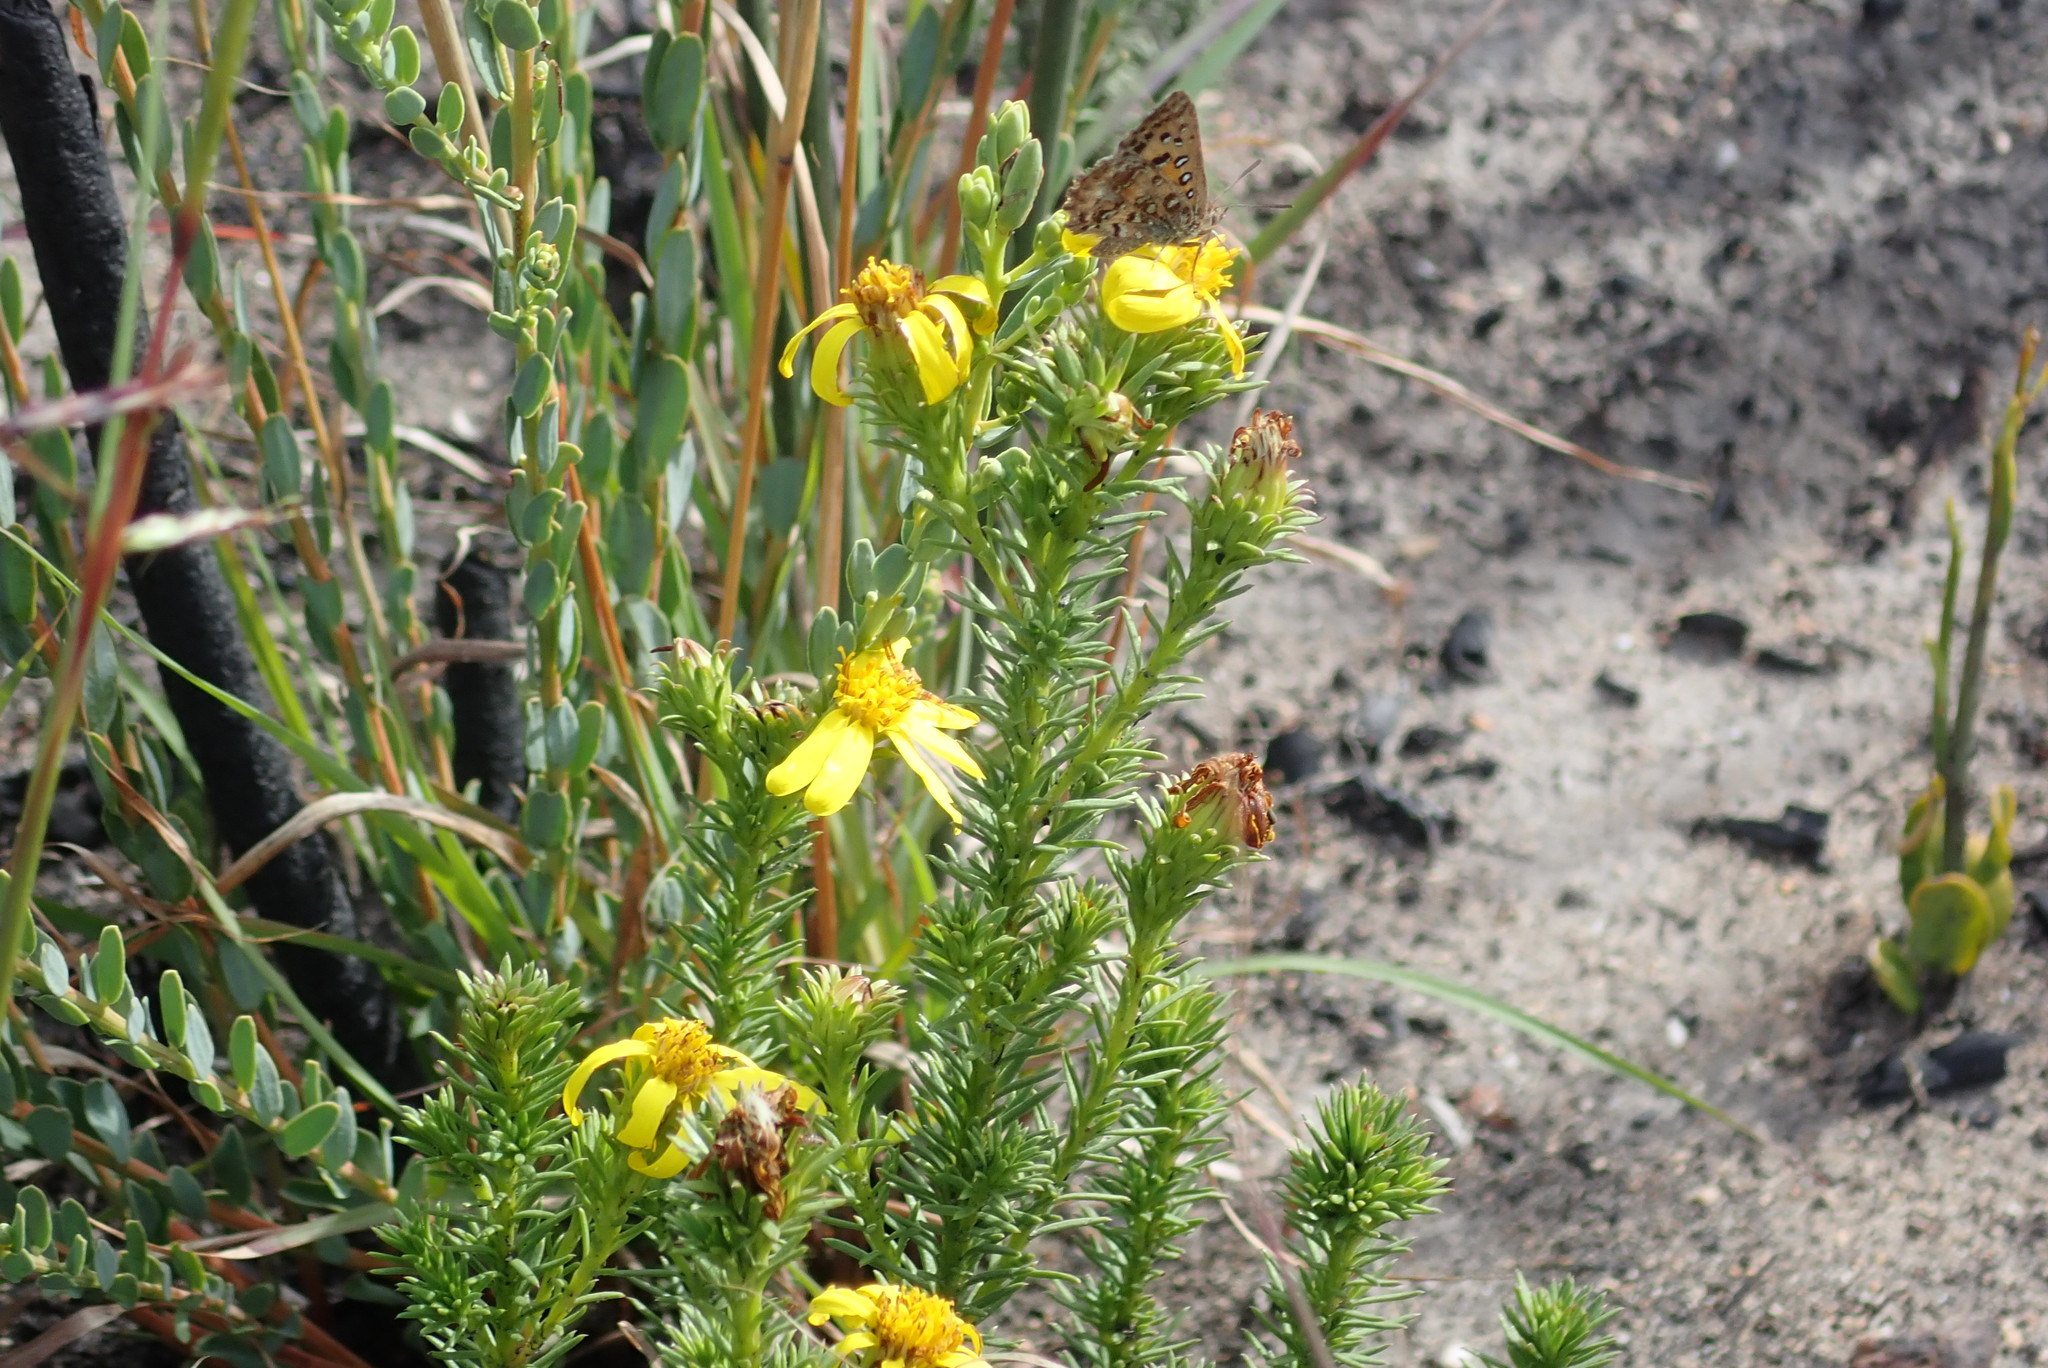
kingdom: Plantae
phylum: Tracheophyta
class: Magnoliopsida
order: Asterales
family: Asteraceae
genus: Senecio
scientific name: Senecio pinifolius
